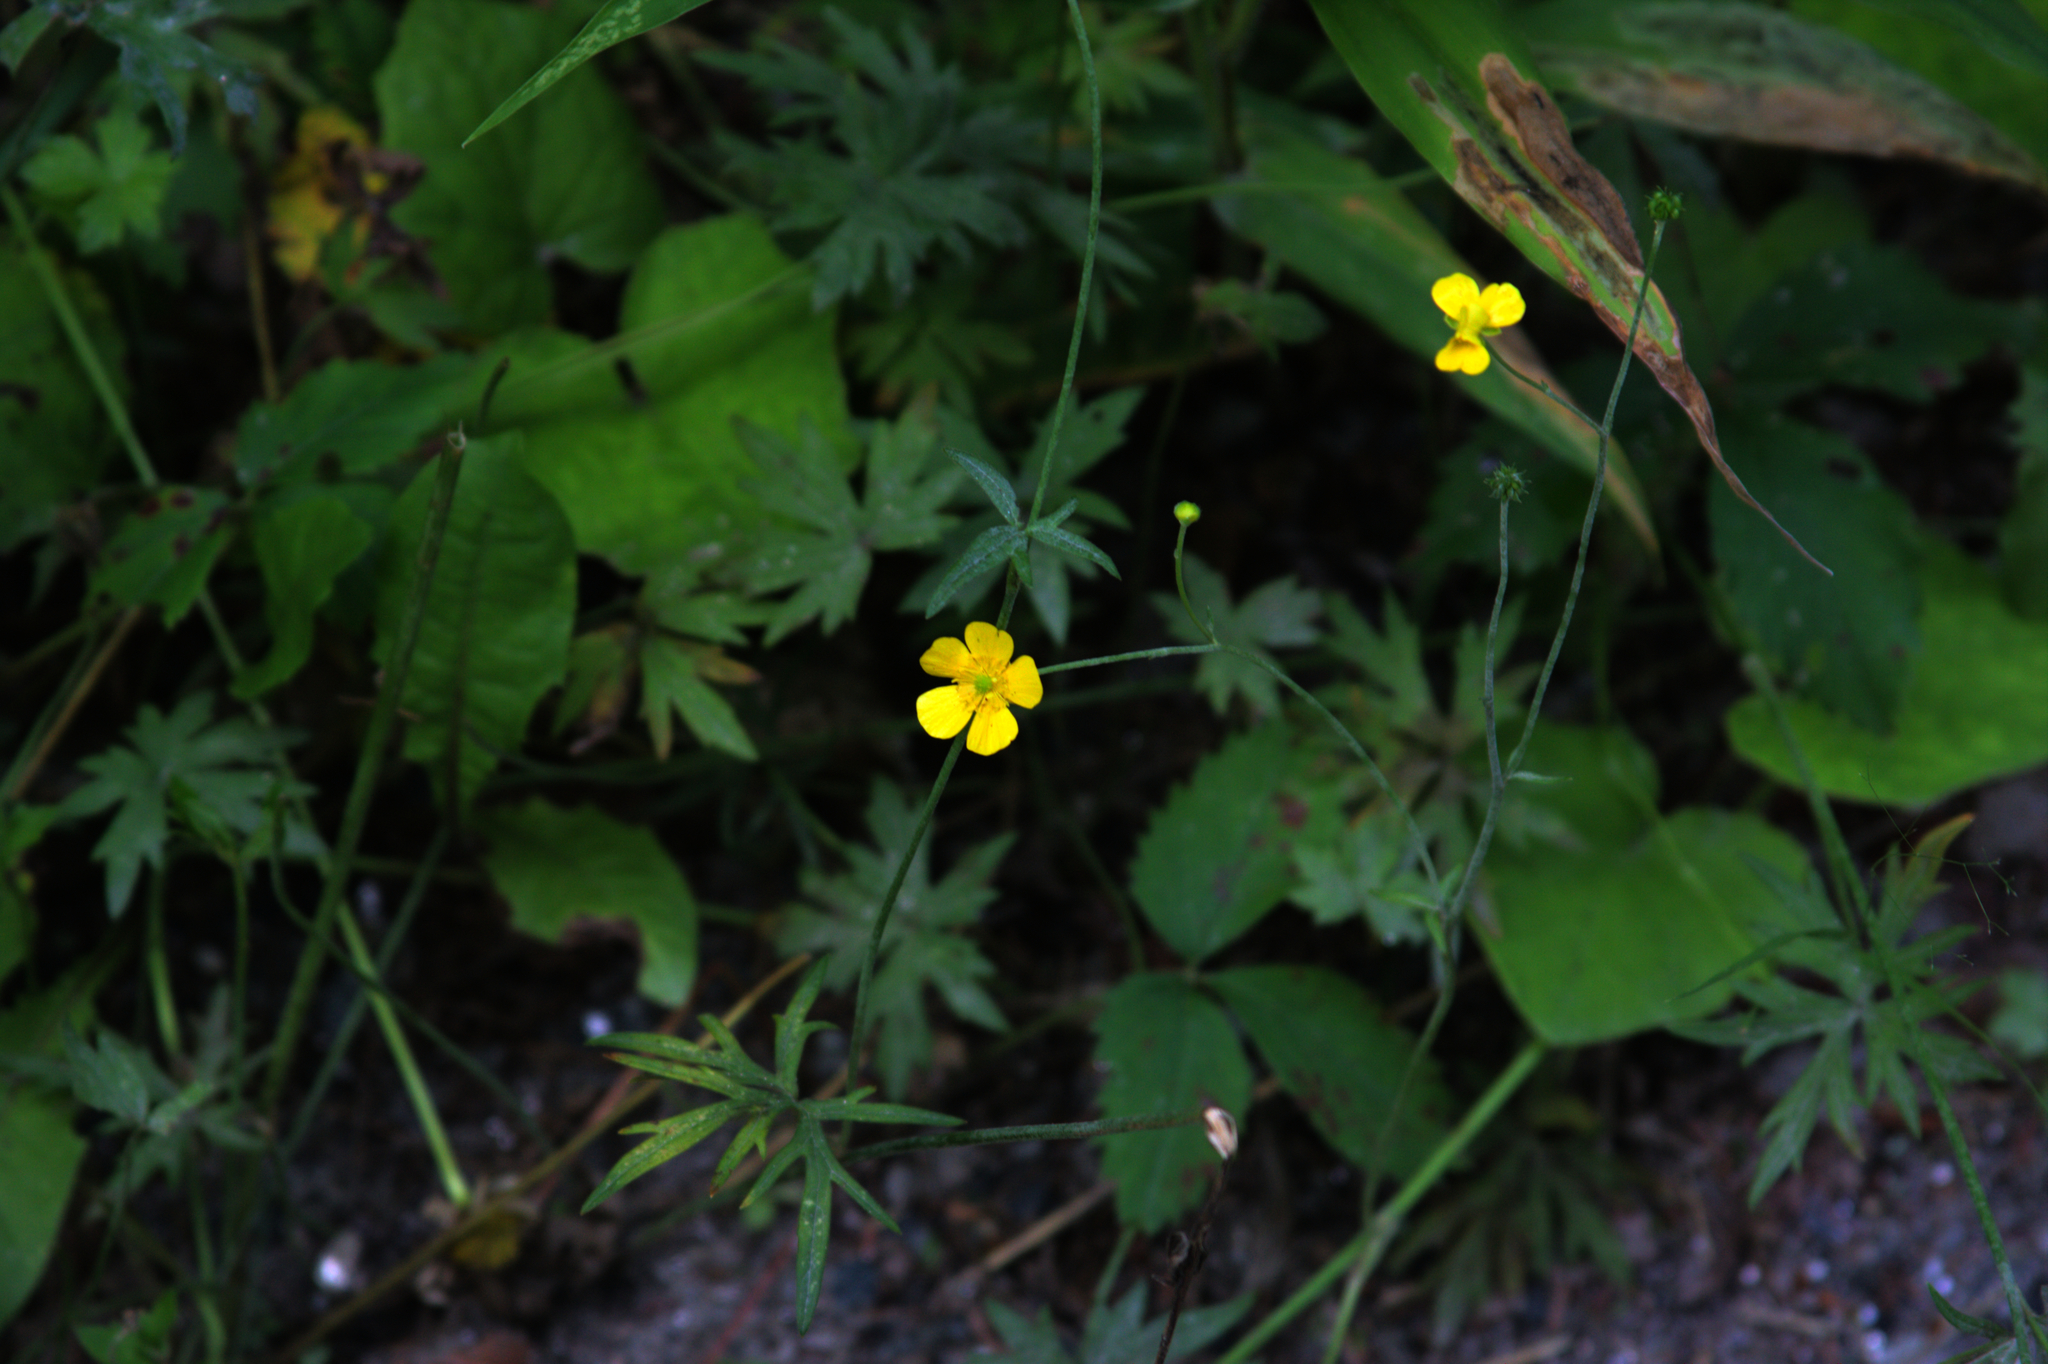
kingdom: Plantae
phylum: Tracheophyta
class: Magnoliopsida
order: Ranunculales
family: Ranunculaceae
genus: Ranunculus
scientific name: Ranunculus acris
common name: Meadow buttercup
